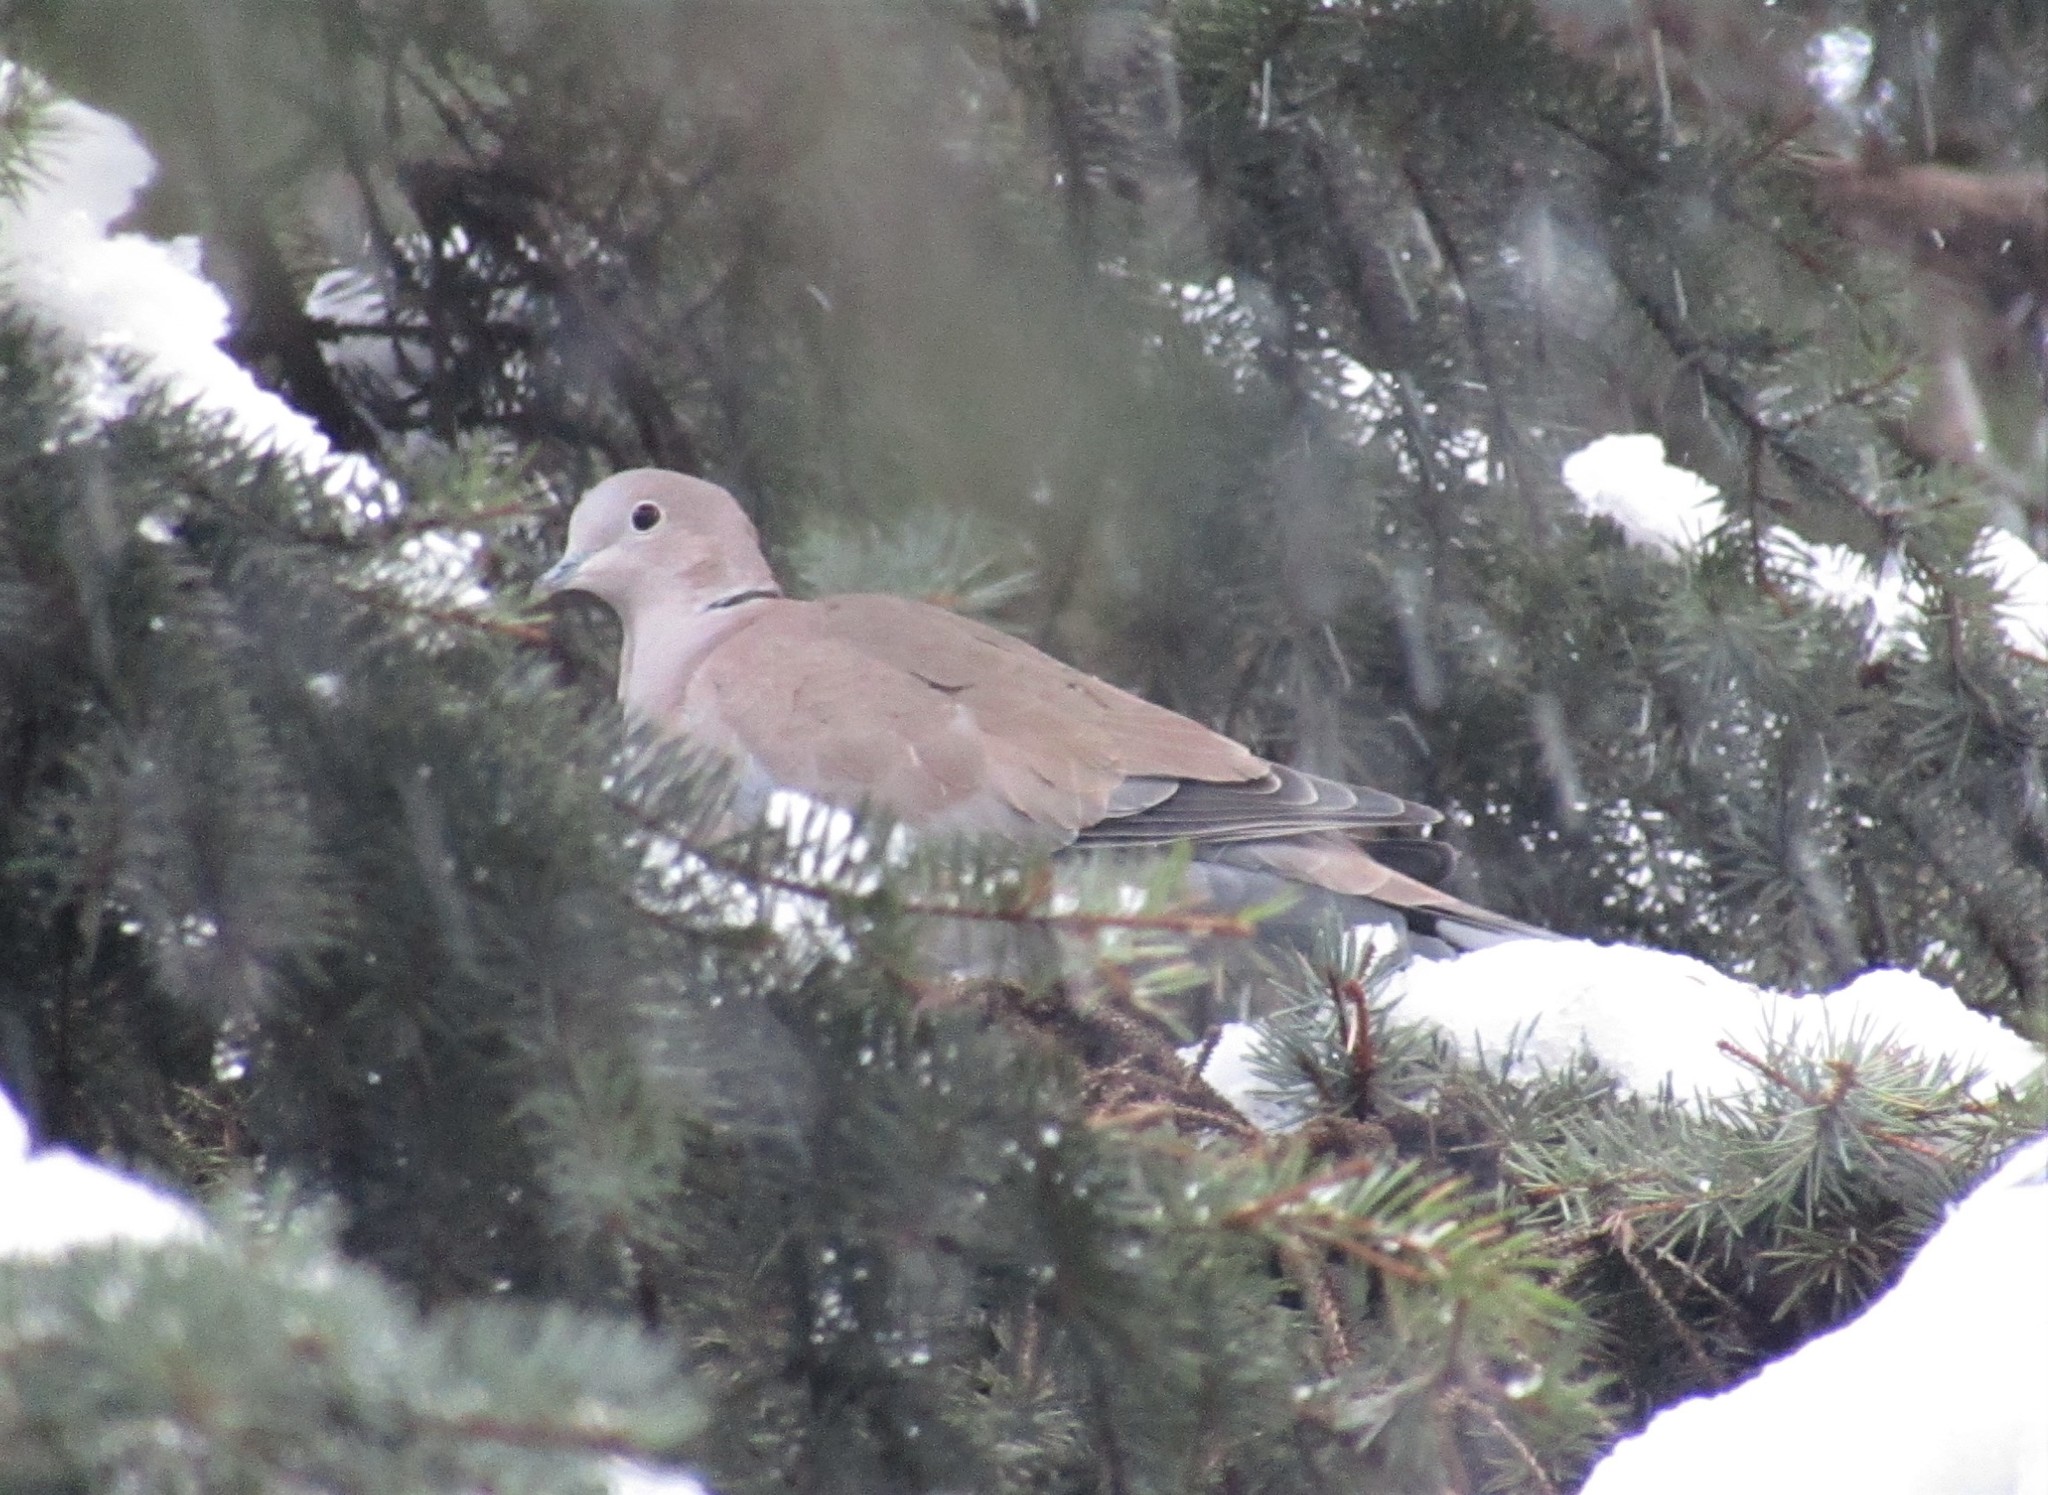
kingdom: Animalia
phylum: Chordata
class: Aves
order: Columbiformes
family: Columbidae
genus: Streptopelia
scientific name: Streptopelia decaocto
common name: Eurasian collared dove
